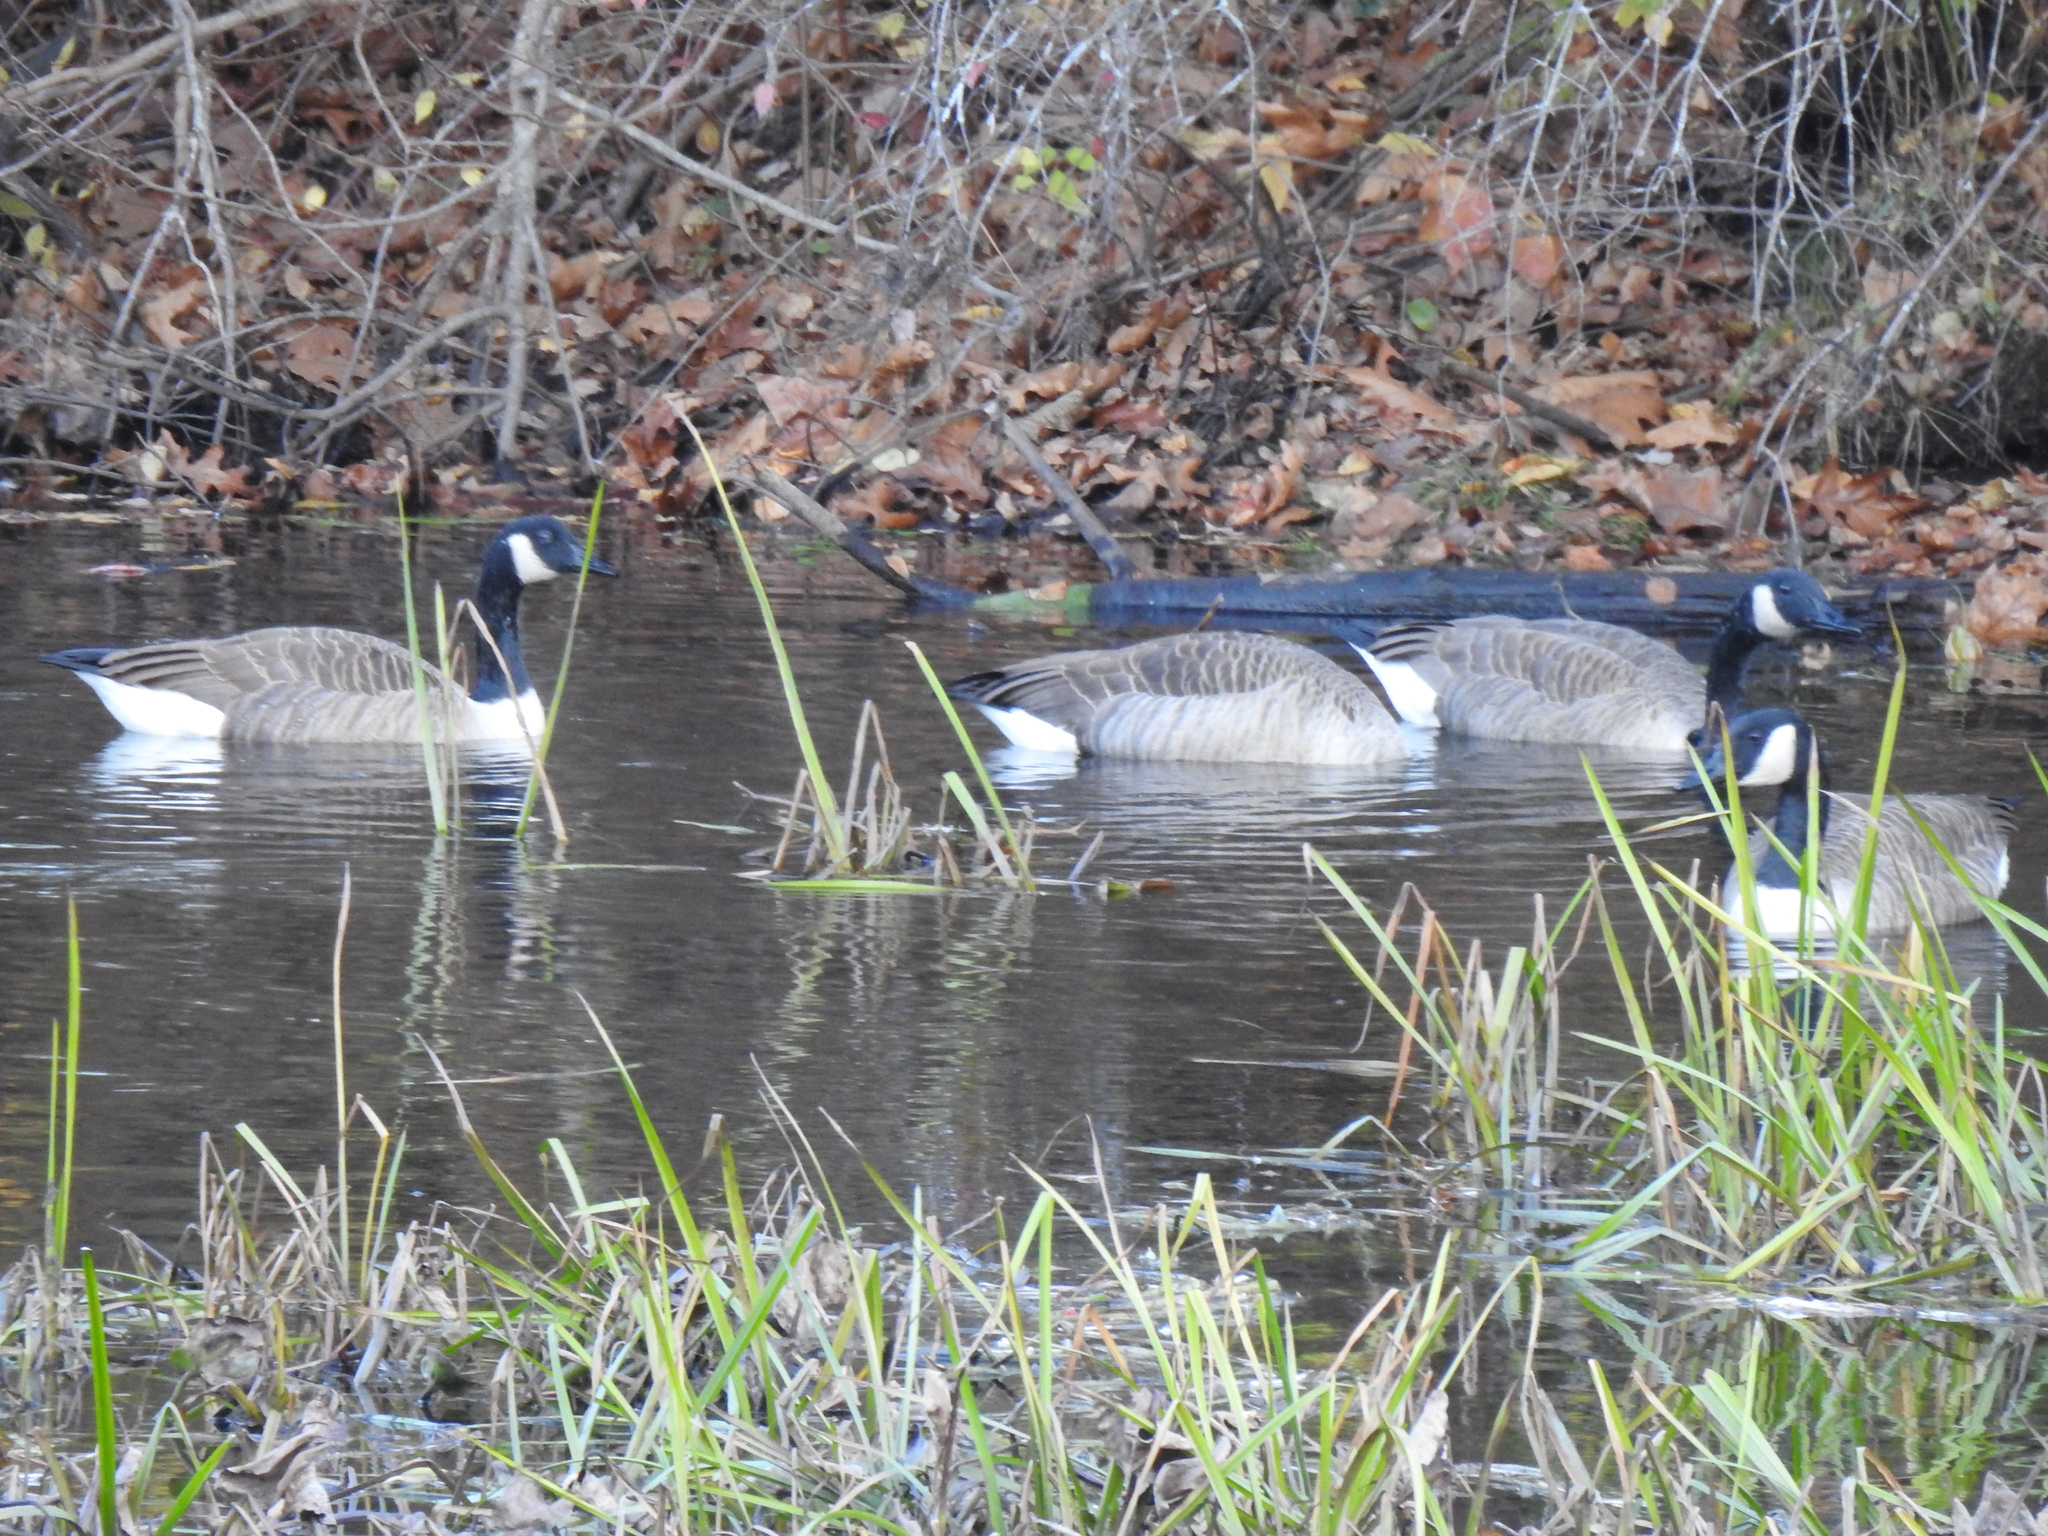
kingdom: Animalia
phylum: Chordata
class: Aves
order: Anseriformes
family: Anatidae
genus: Branta
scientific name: Branta canadensis
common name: Canada goose
